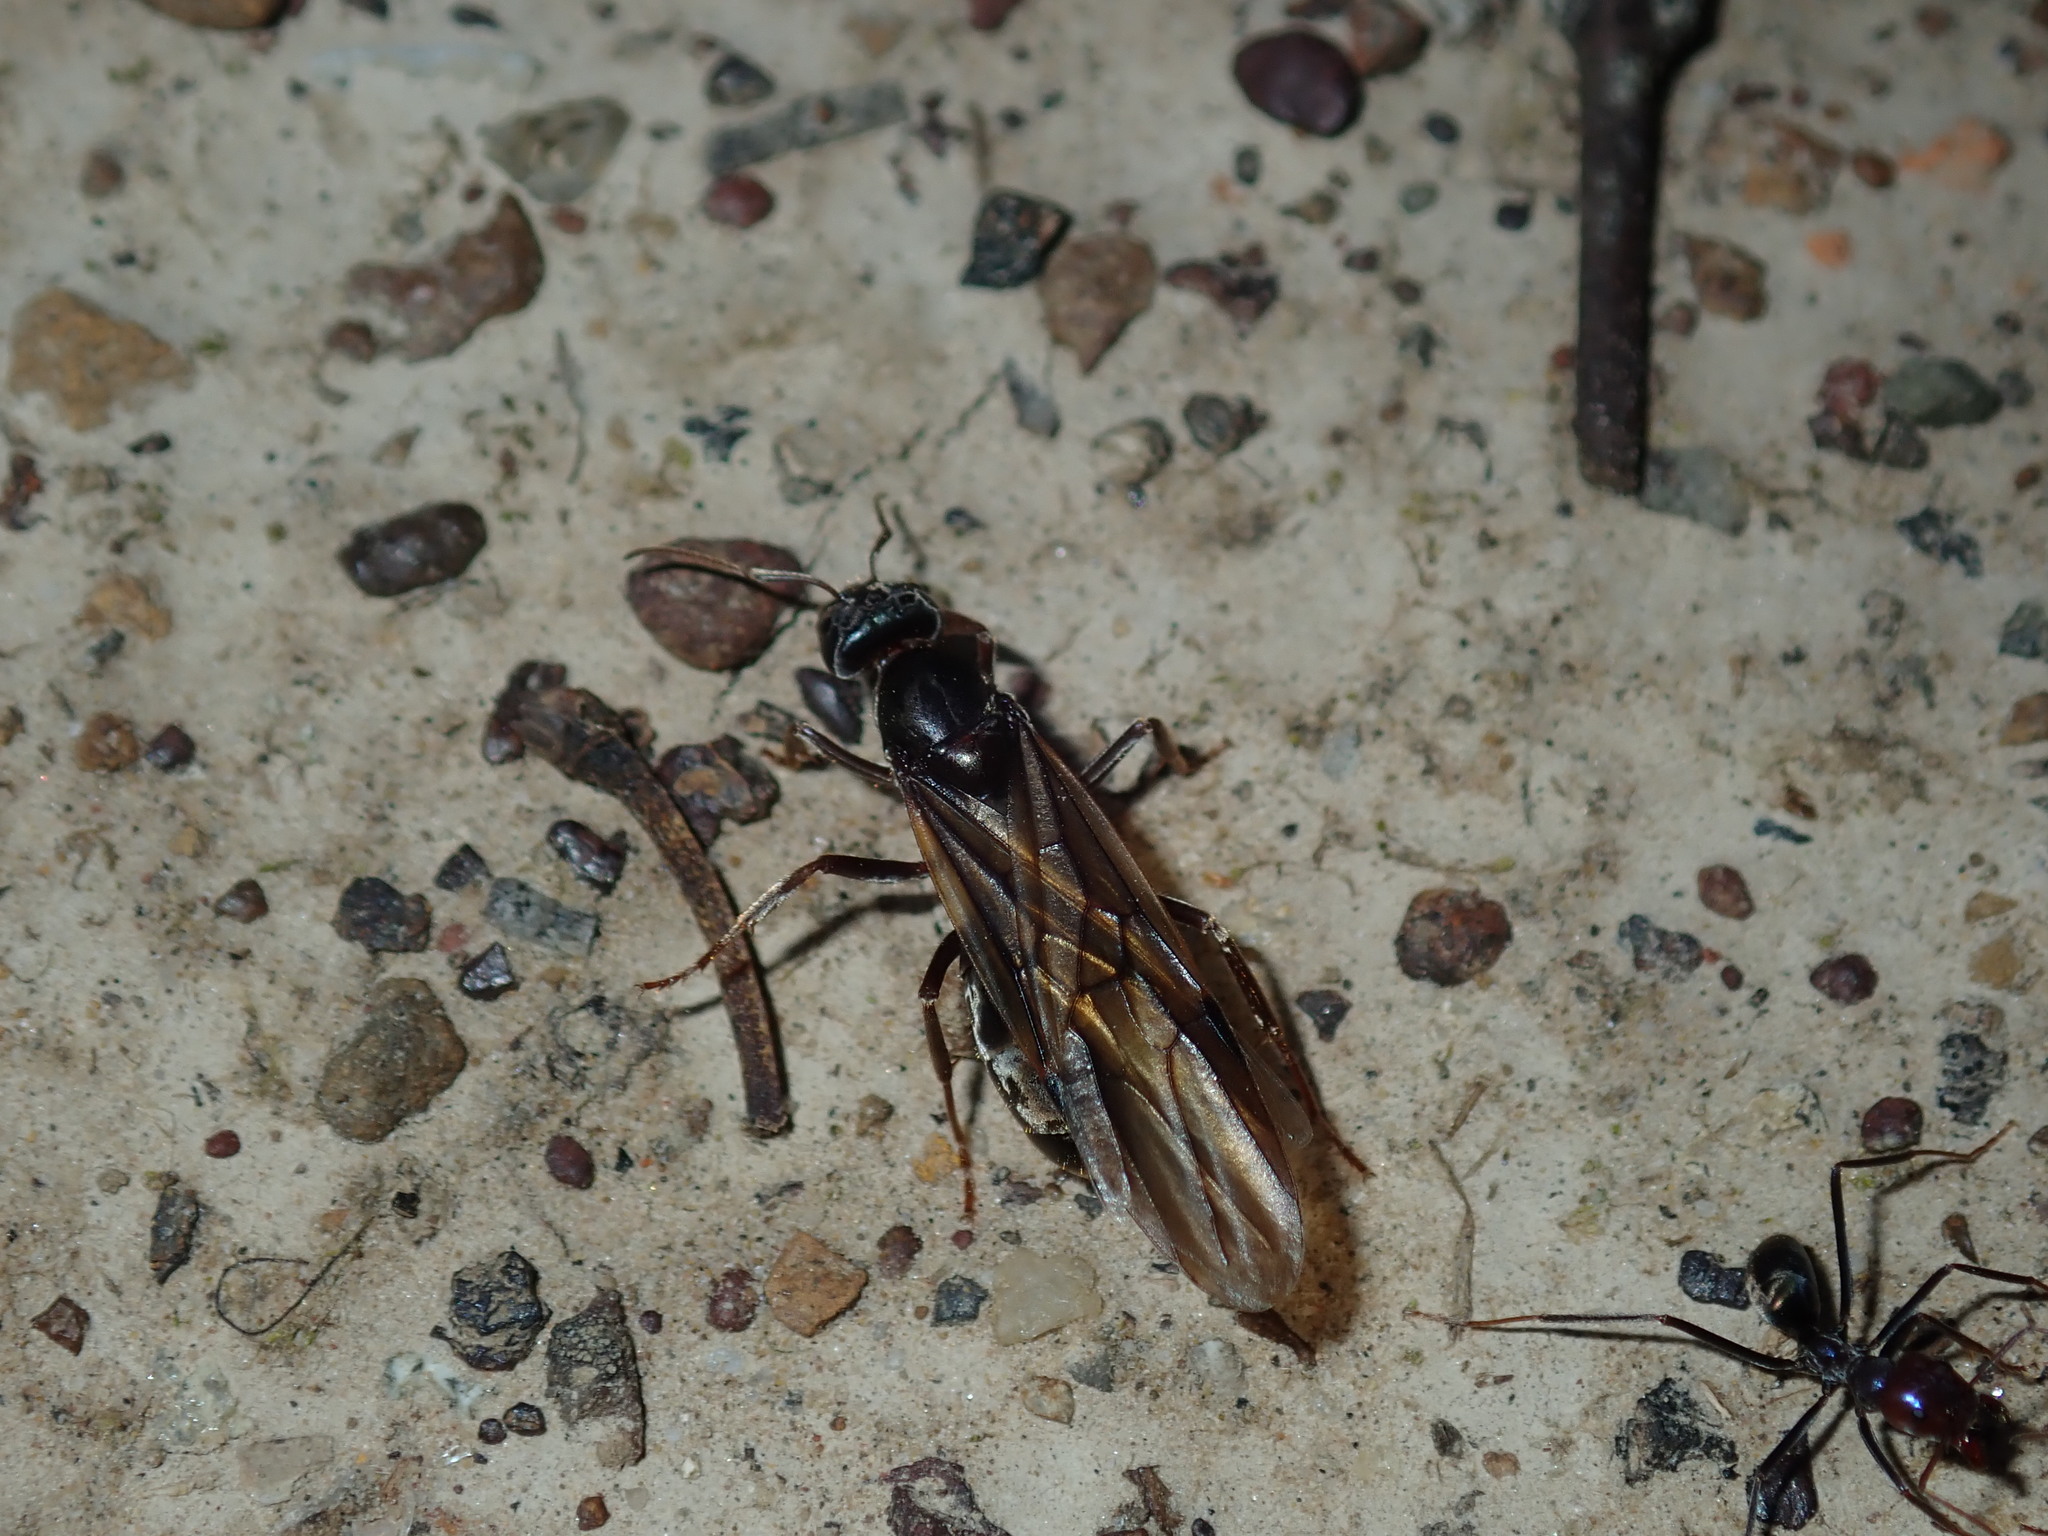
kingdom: Animalia
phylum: Arthropoda
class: Insecta
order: Hymenoptera
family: Formicidae
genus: Iridomyrmex
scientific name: Iridomyrmex purpureus
